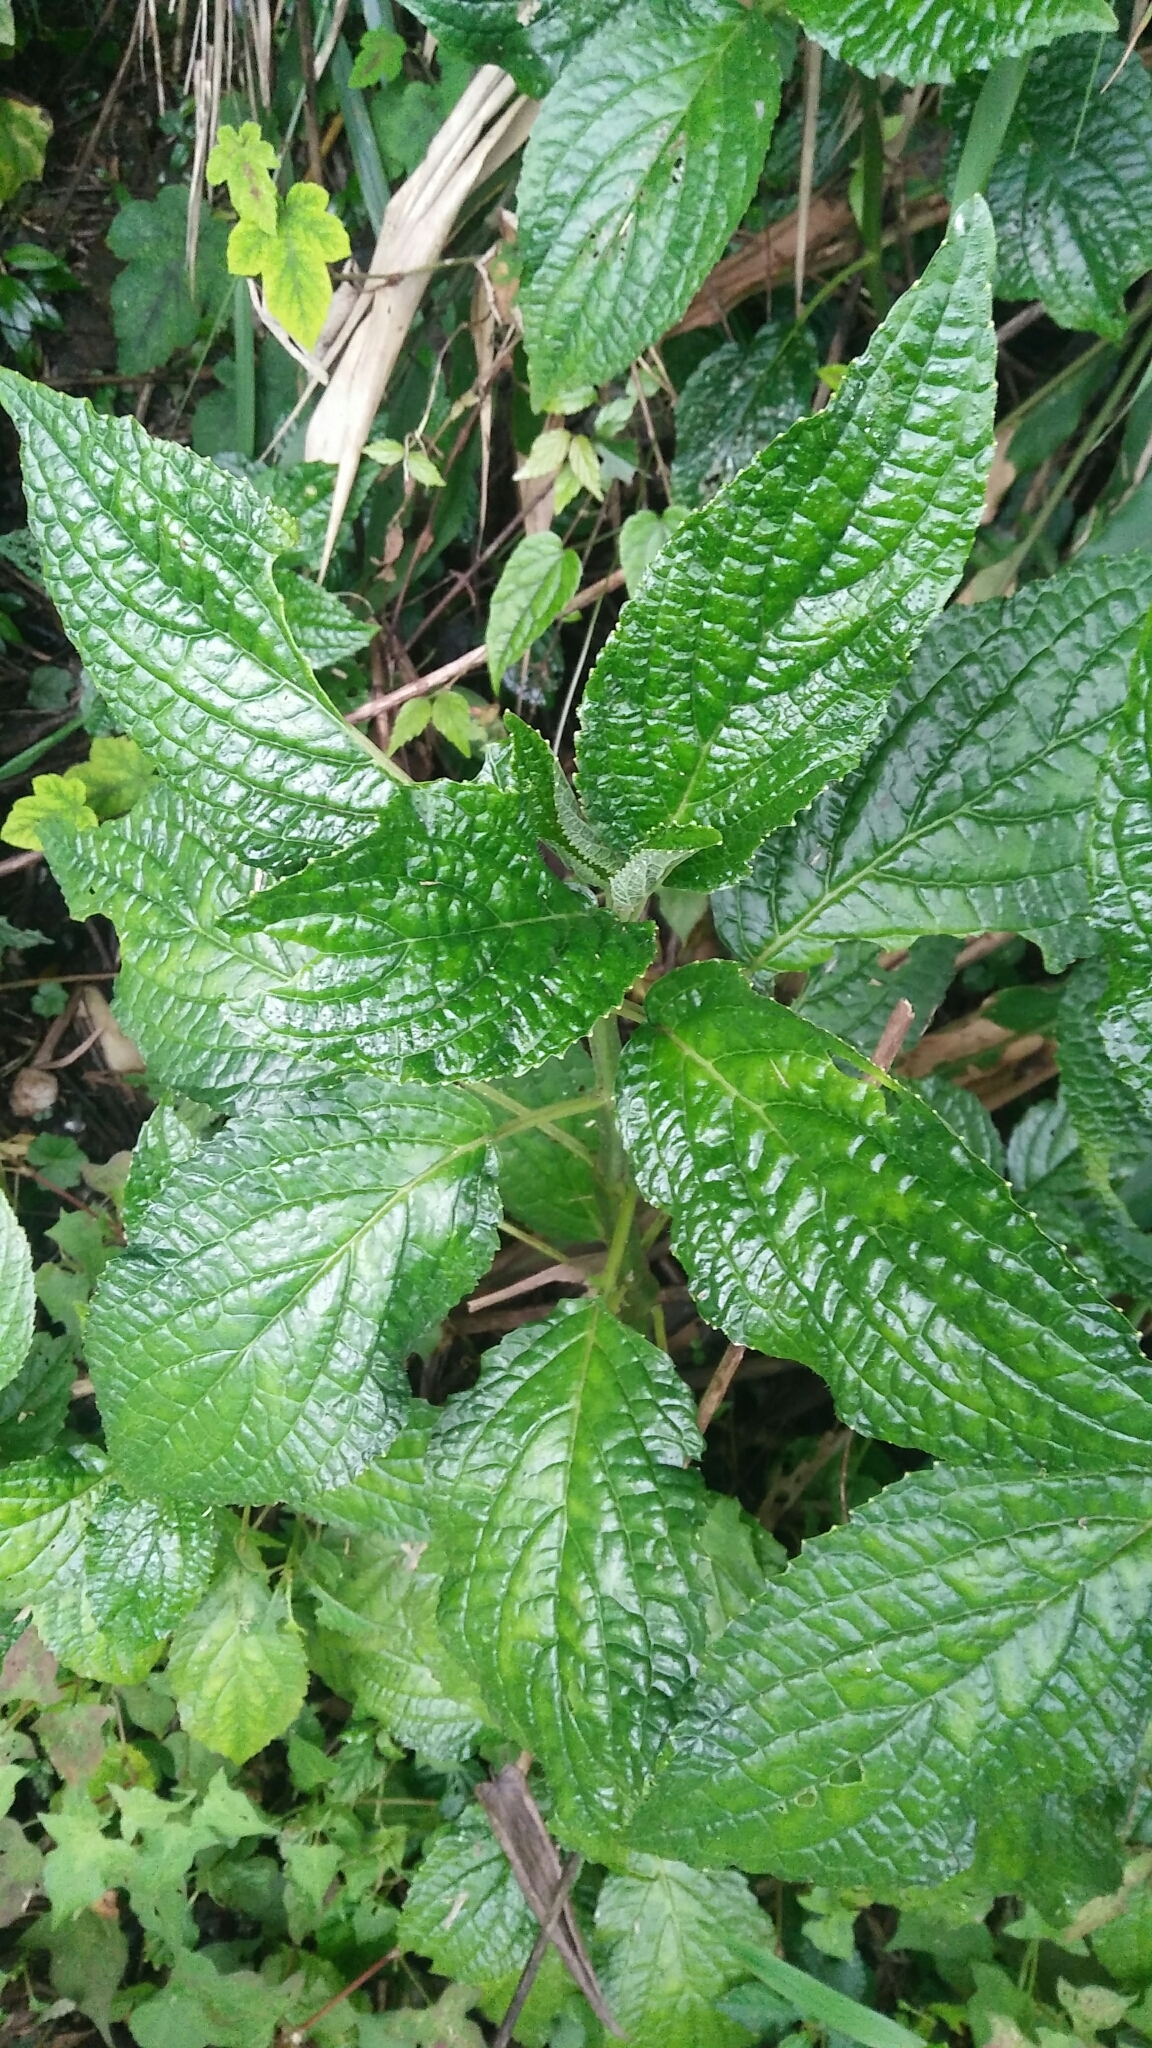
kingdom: Plantae
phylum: Tracheophyta
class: Magnoliopsida
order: Lamiales
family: Lamiaceae
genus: Paraphlomis
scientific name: Paraphlomis javanica
